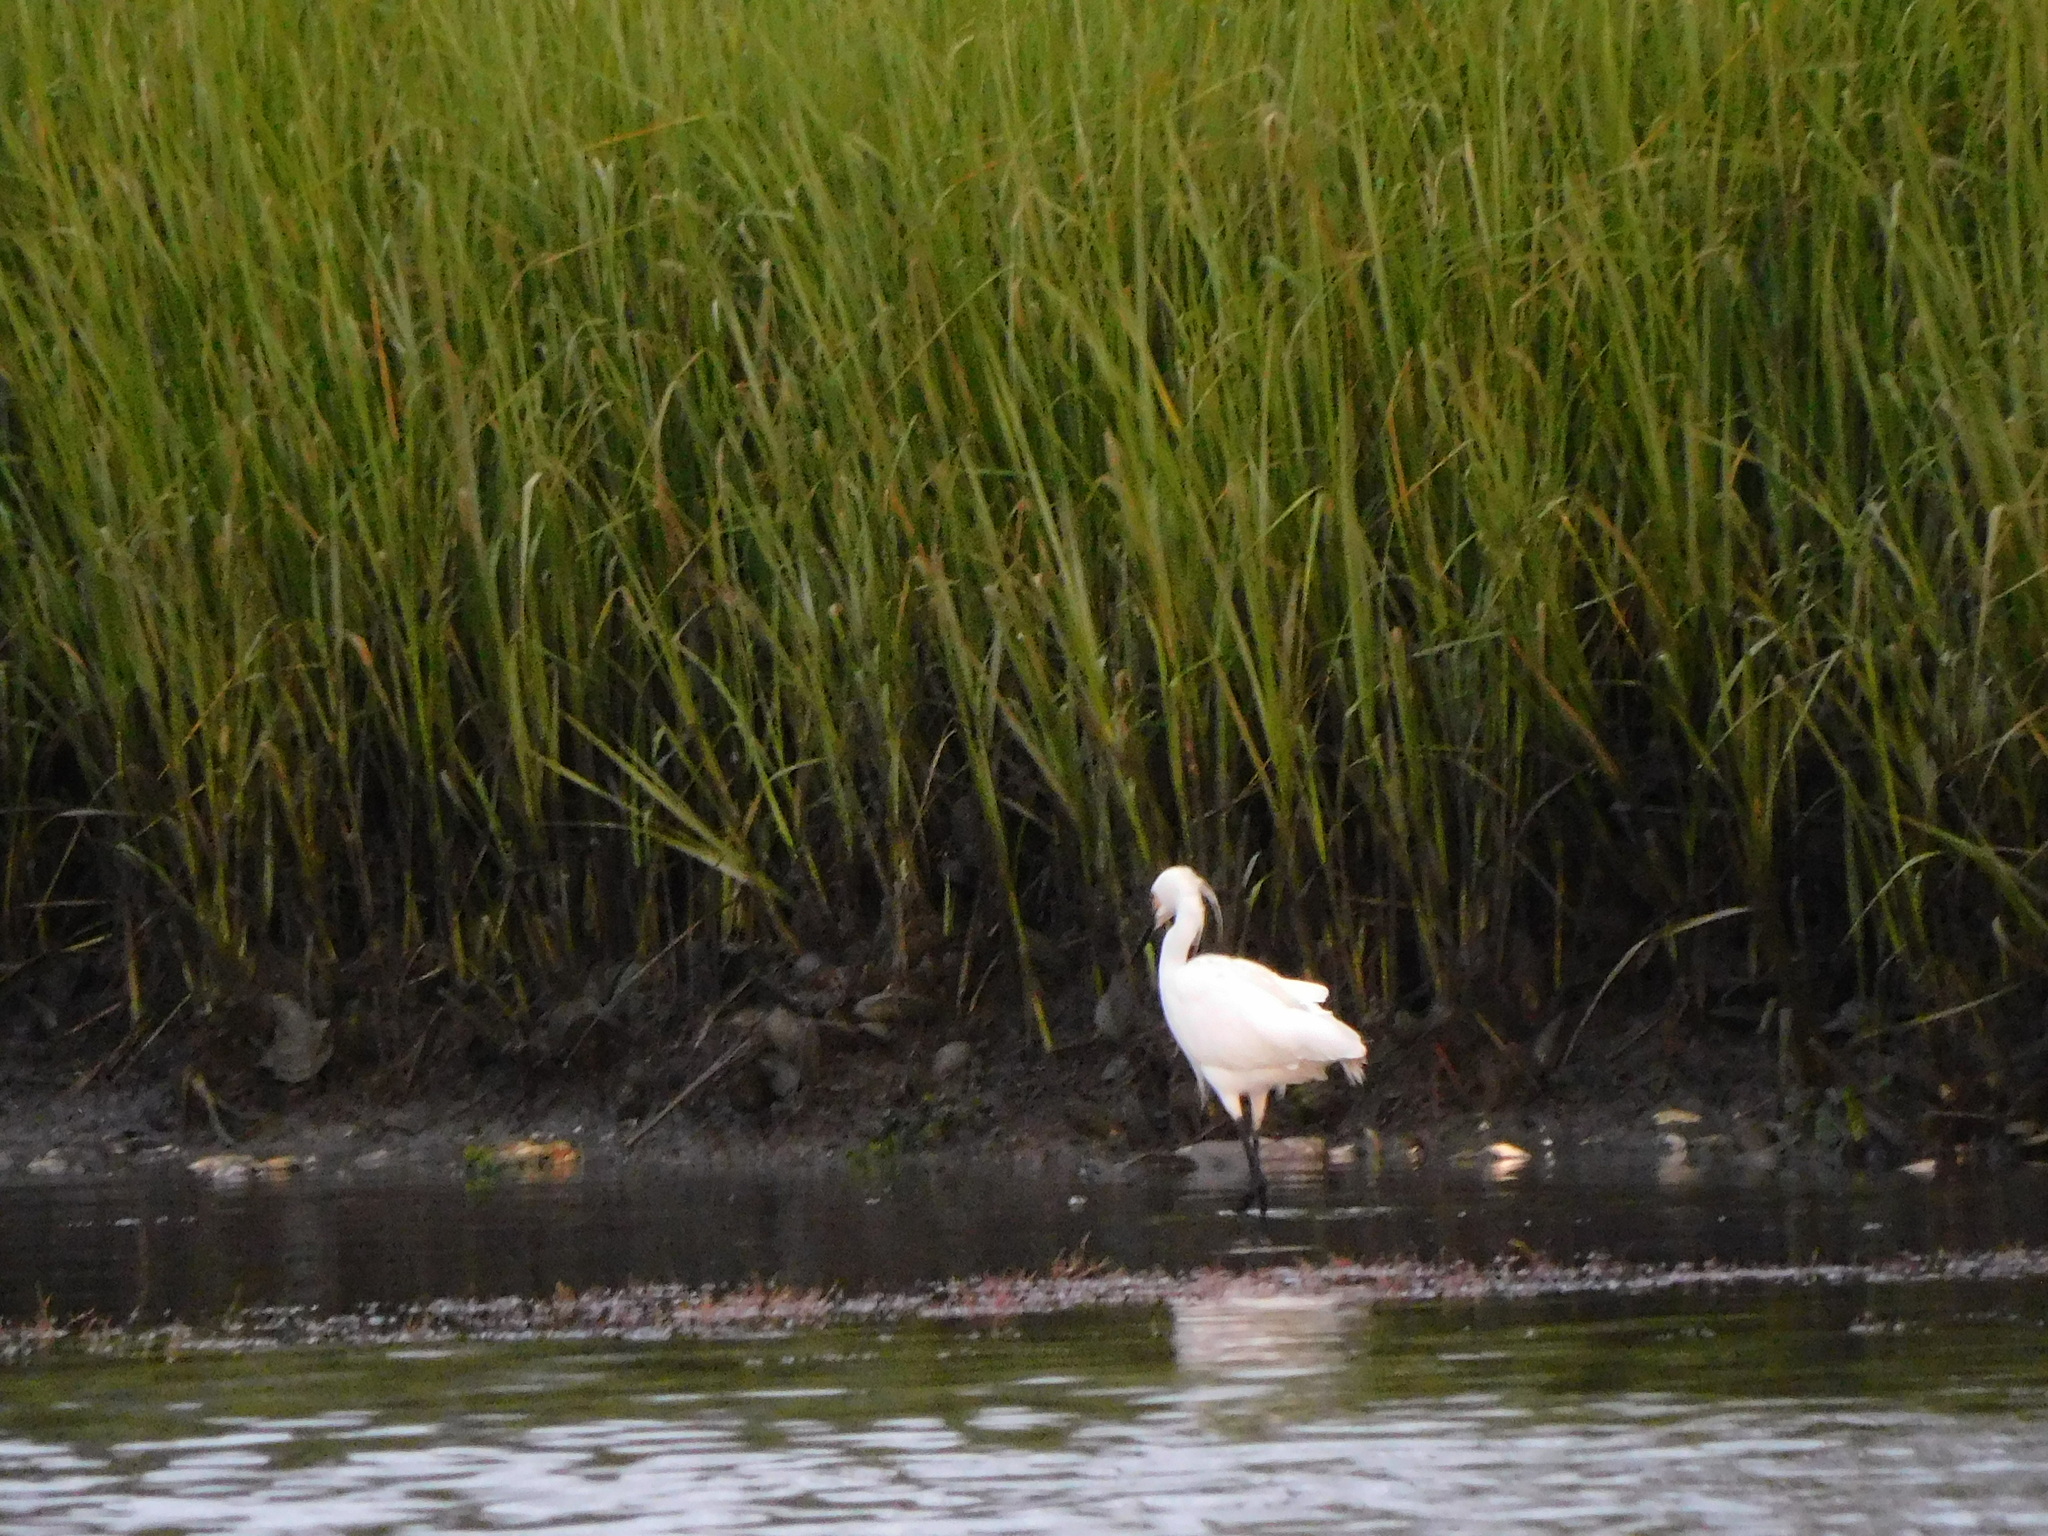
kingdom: Animalia
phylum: Chordata
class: Aves
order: Pelecaniformes
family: Ardeidae
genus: Egretta
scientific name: Egretta thula
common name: Snowy egret
